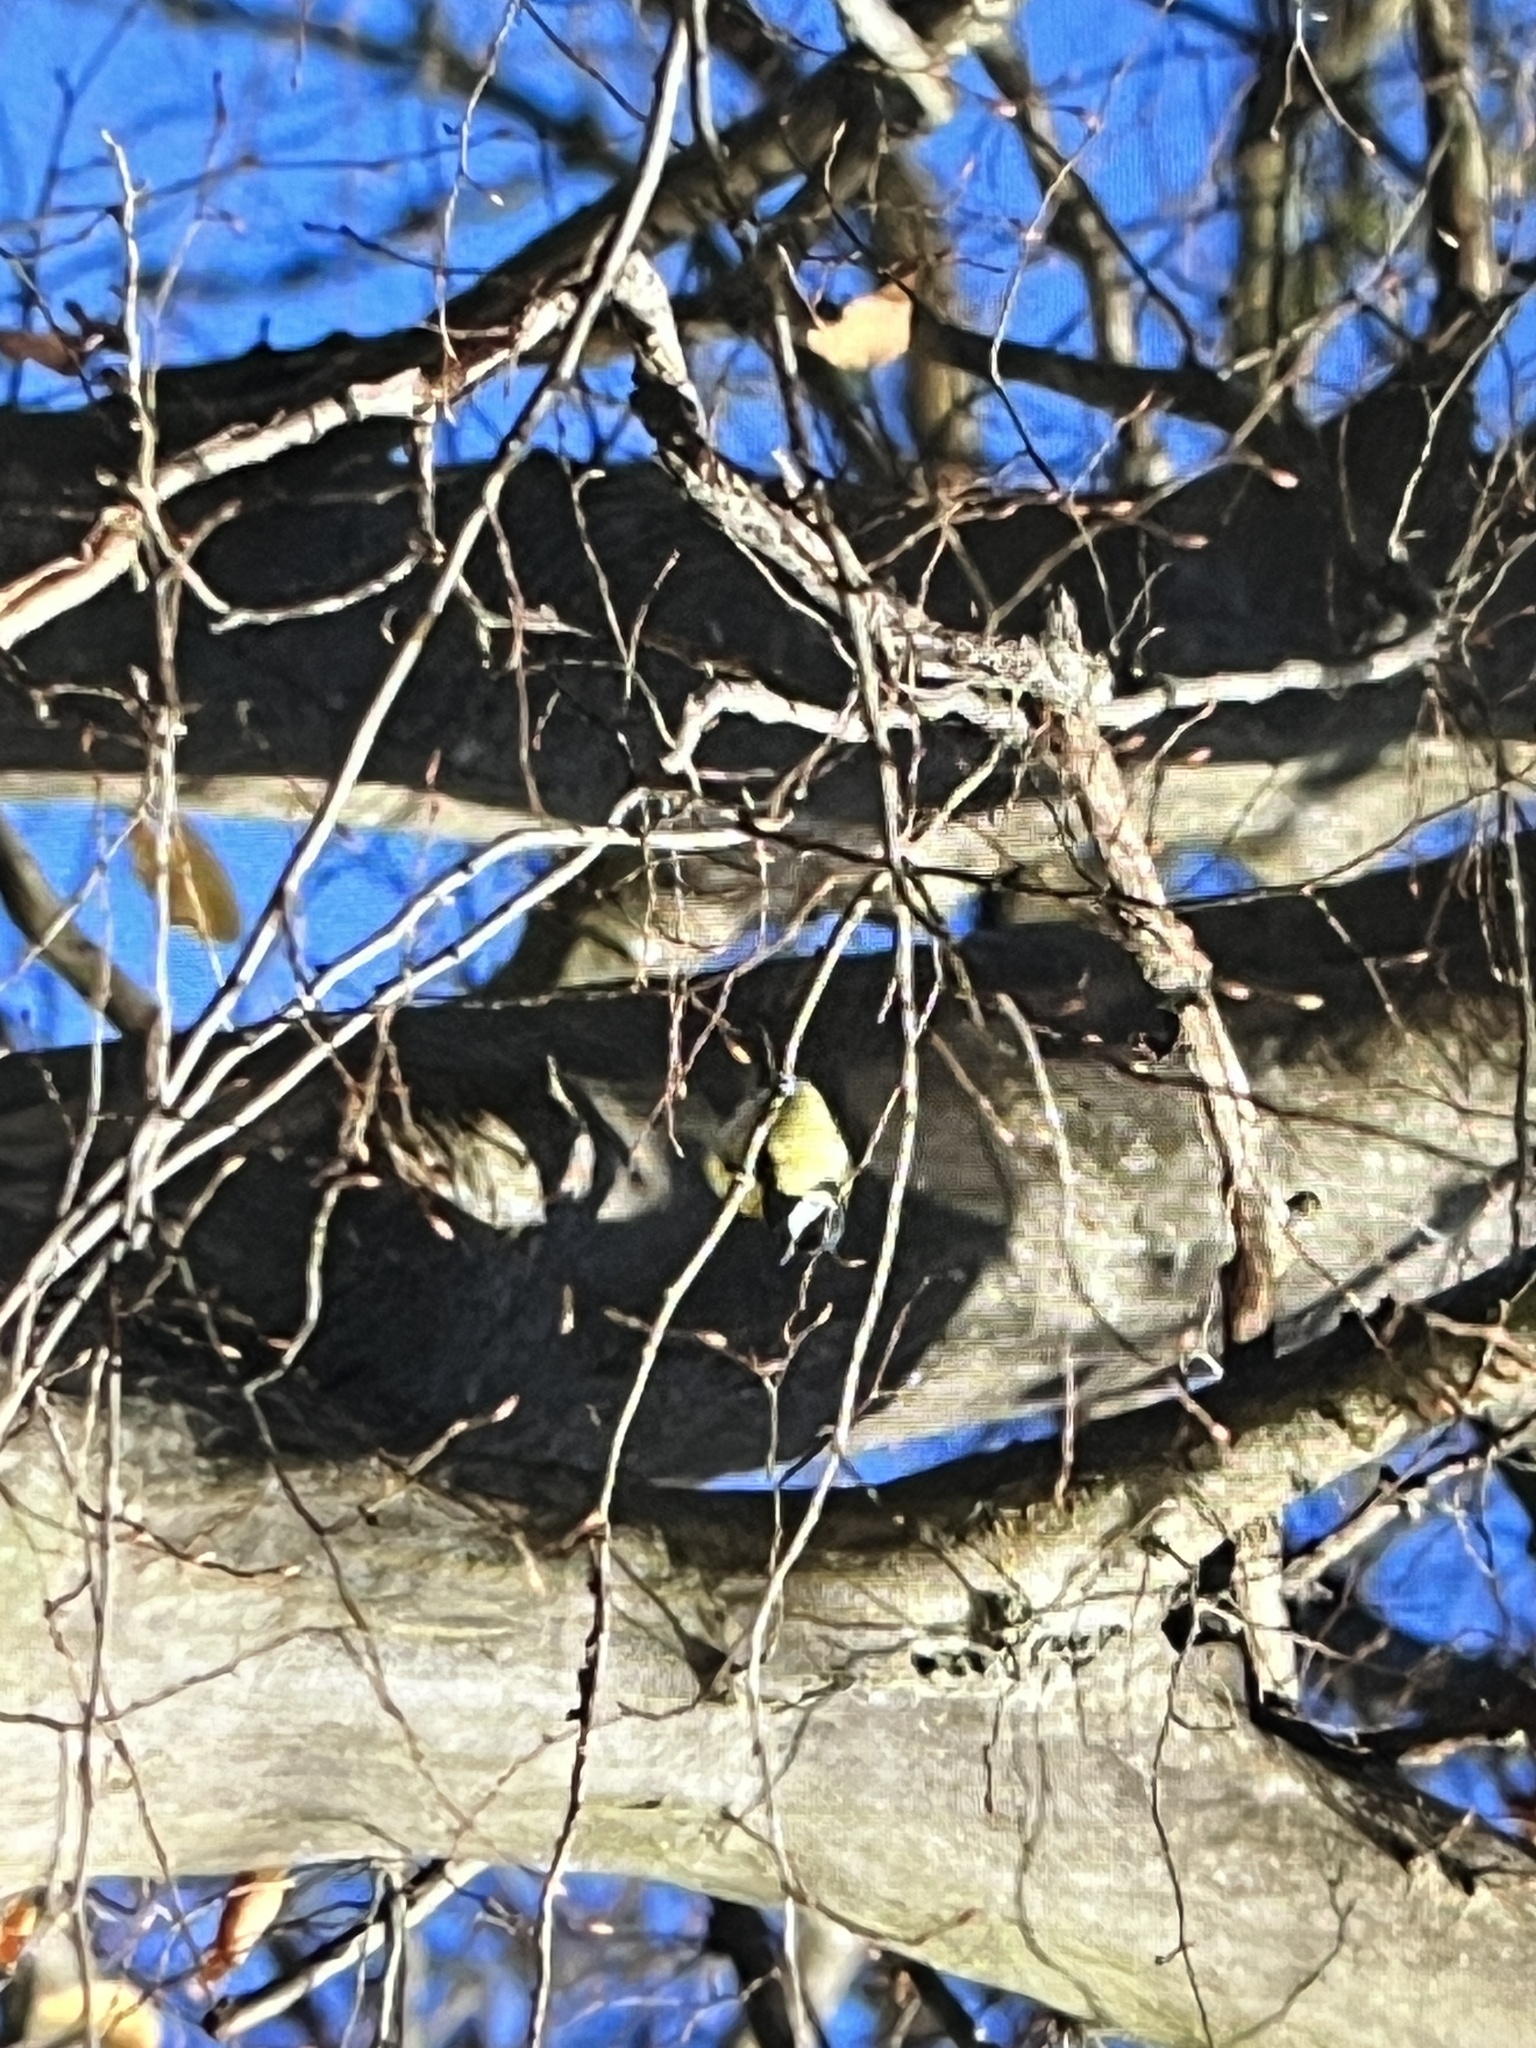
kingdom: Animalia
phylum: Chordata
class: Aves
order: Passeriformes
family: Paridae
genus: Parus
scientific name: Parus major
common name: Great tit
